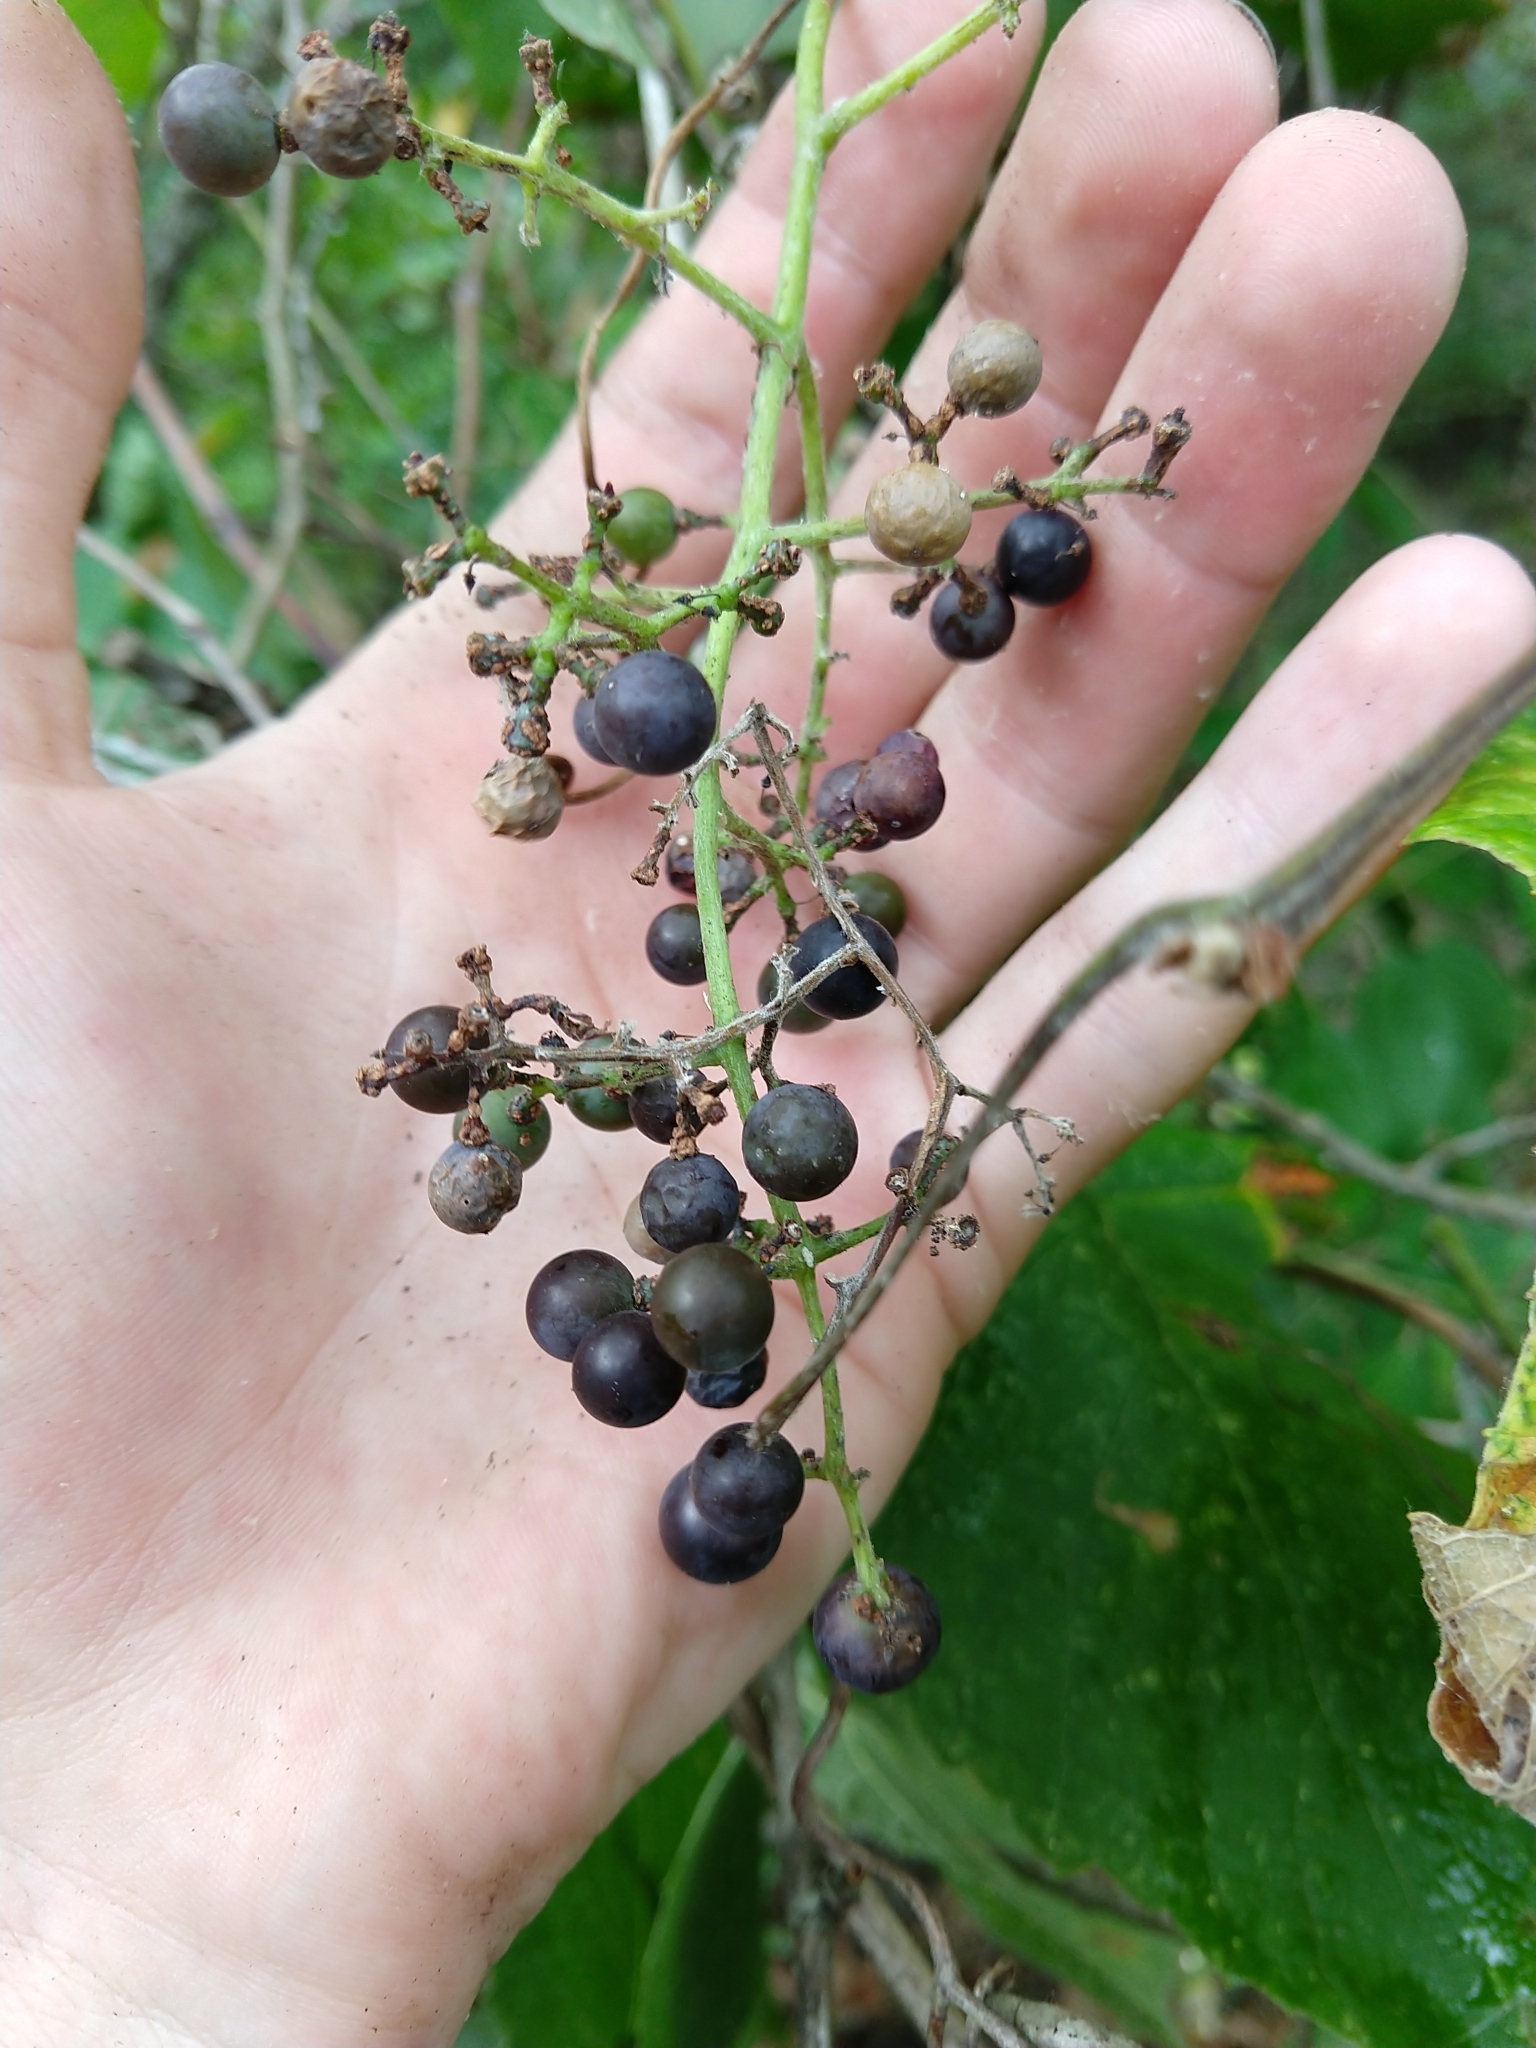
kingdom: Plantae
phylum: Tracheophyta
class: Magnoliopsida
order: Vitales
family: Vitaceae
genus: Vitis
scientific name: Vitis cinerea
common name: Ashy grape
